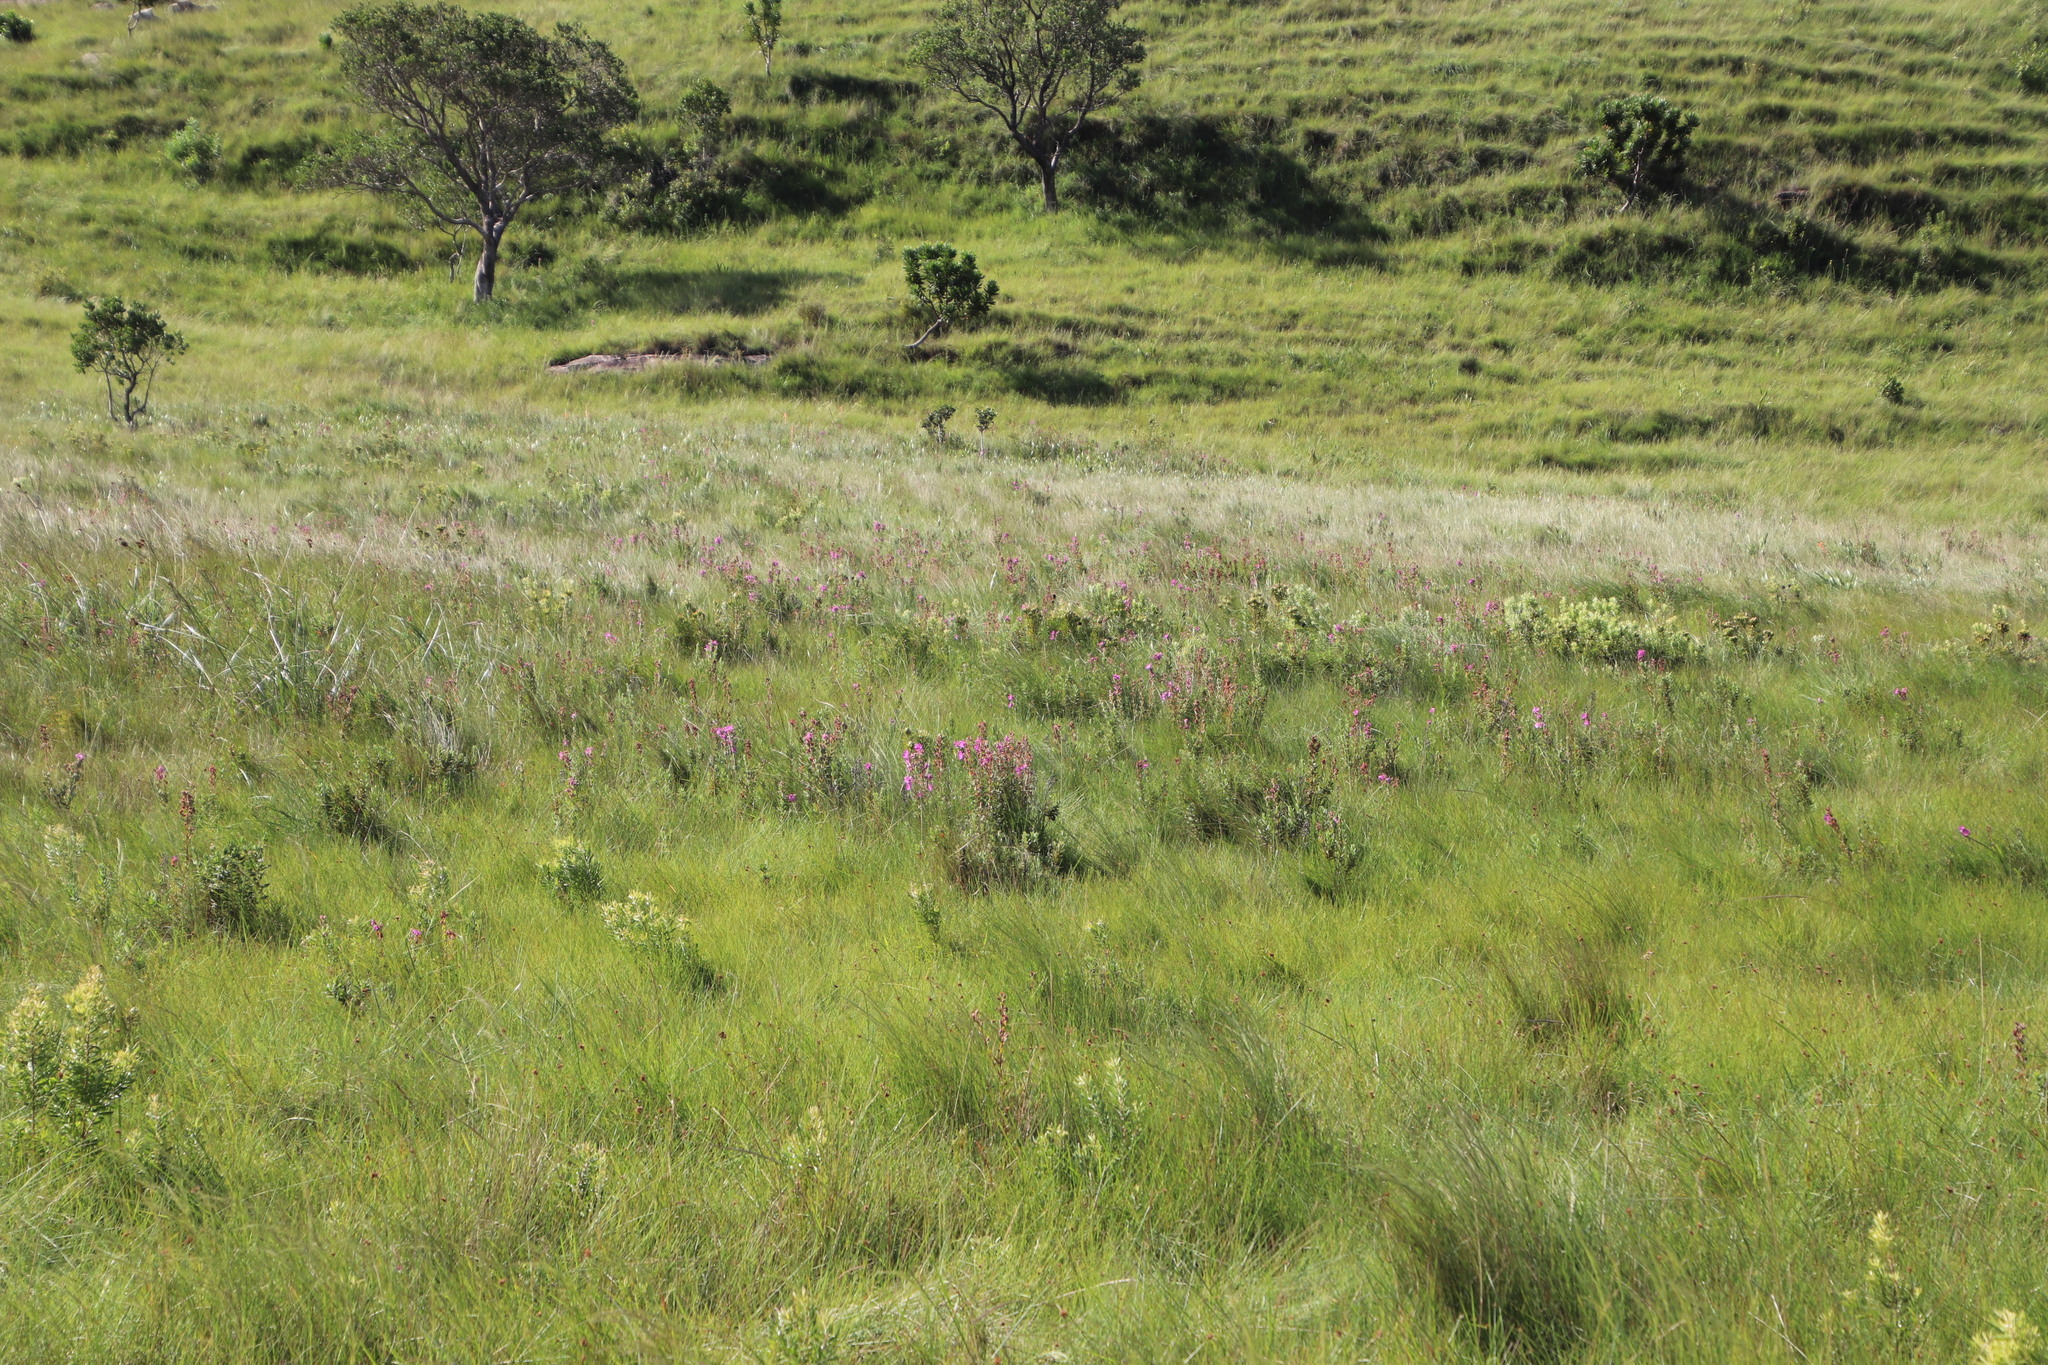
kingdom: Plantae
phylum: Tracheophyta
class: Magnoliopsida
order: Proteales
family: Proteaceae
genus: Leucadendron
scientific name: Leucadendron spissifolium
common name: Spear-leaf conebush
